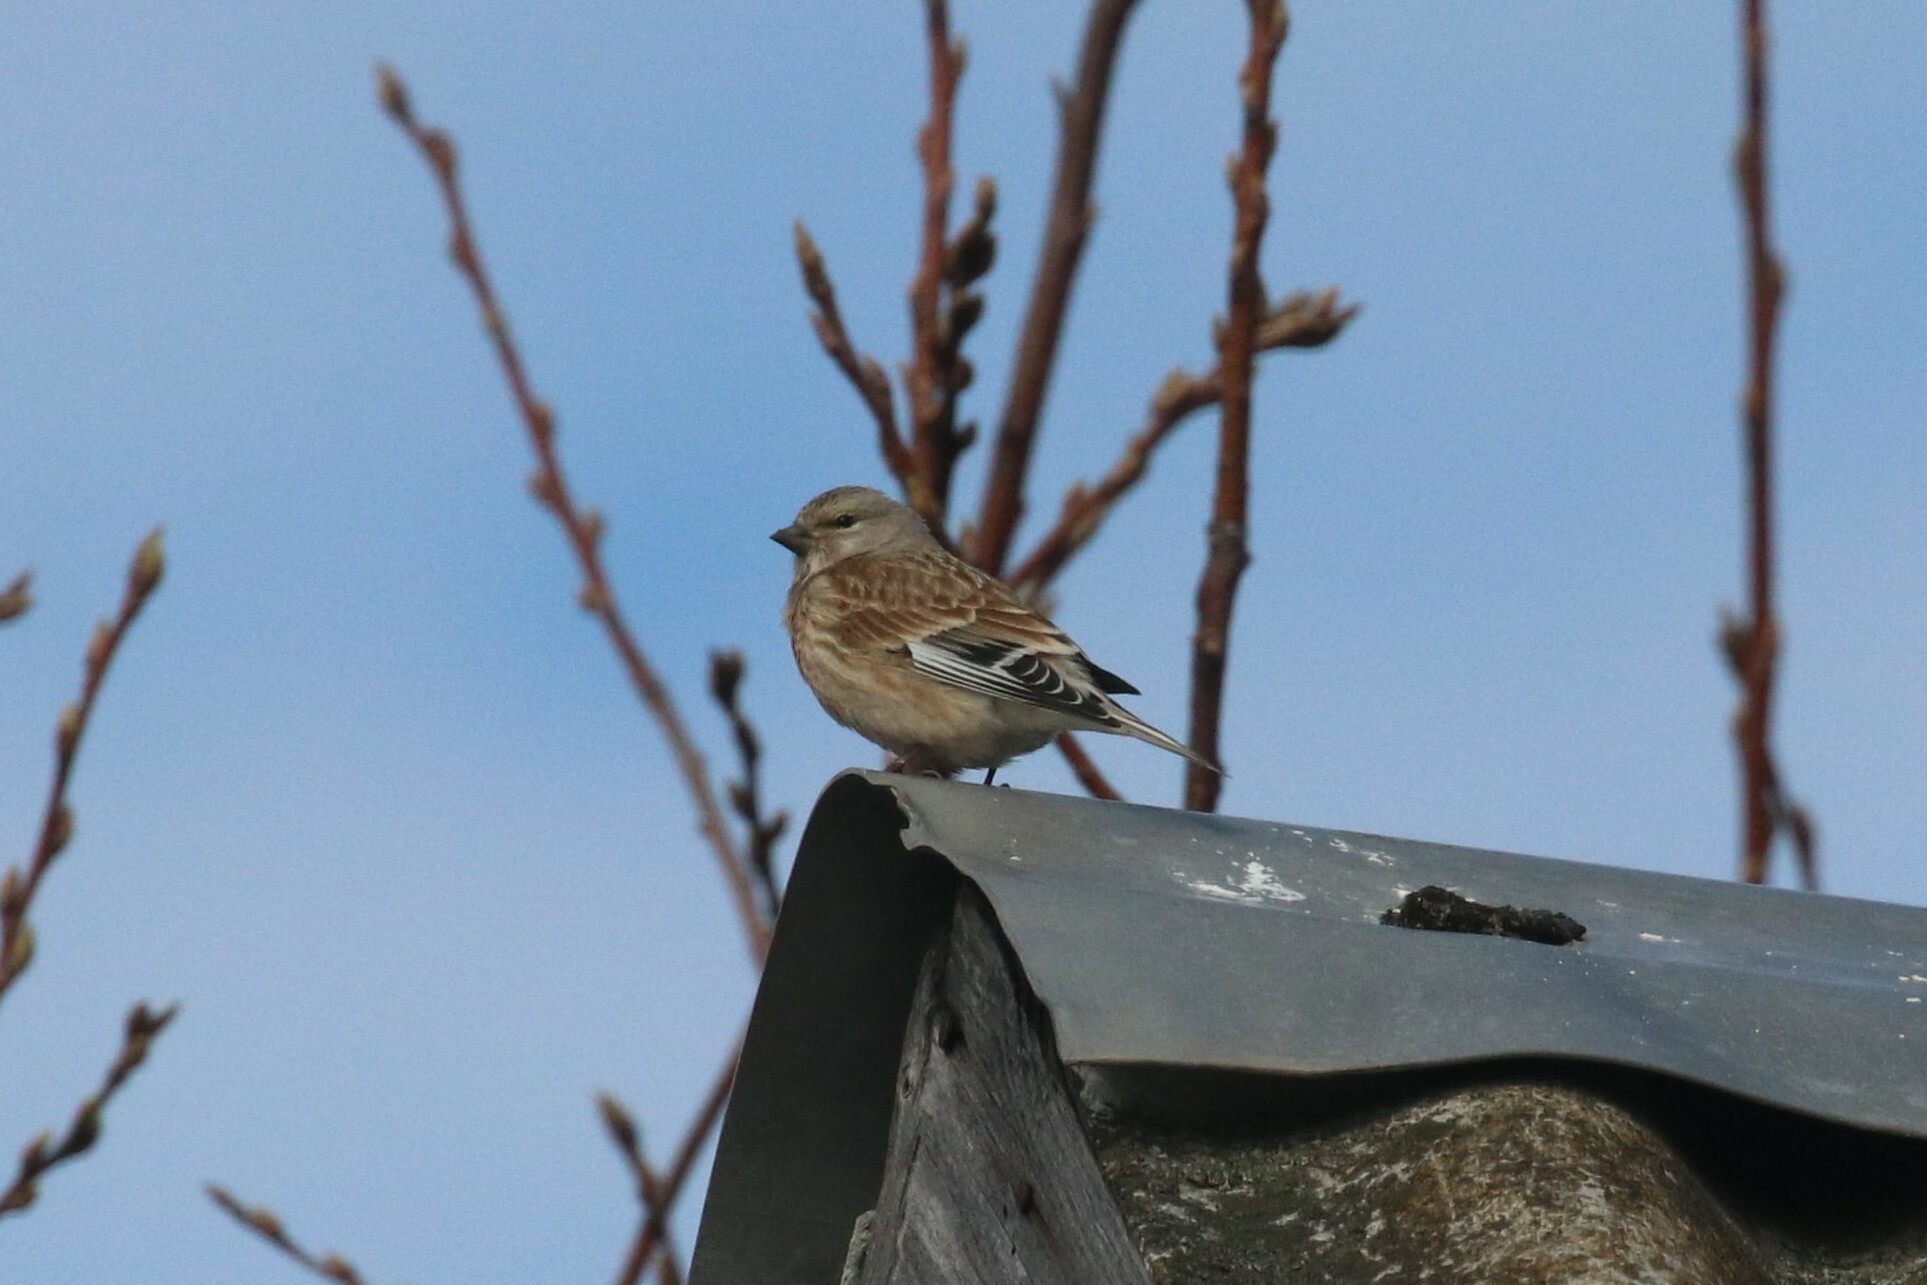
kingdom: Animalia
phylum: Chordata
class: Aves
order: Passeriformes
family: Fringillidae
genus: Linaria
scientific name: Linaria cannabina
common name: Common linnet
